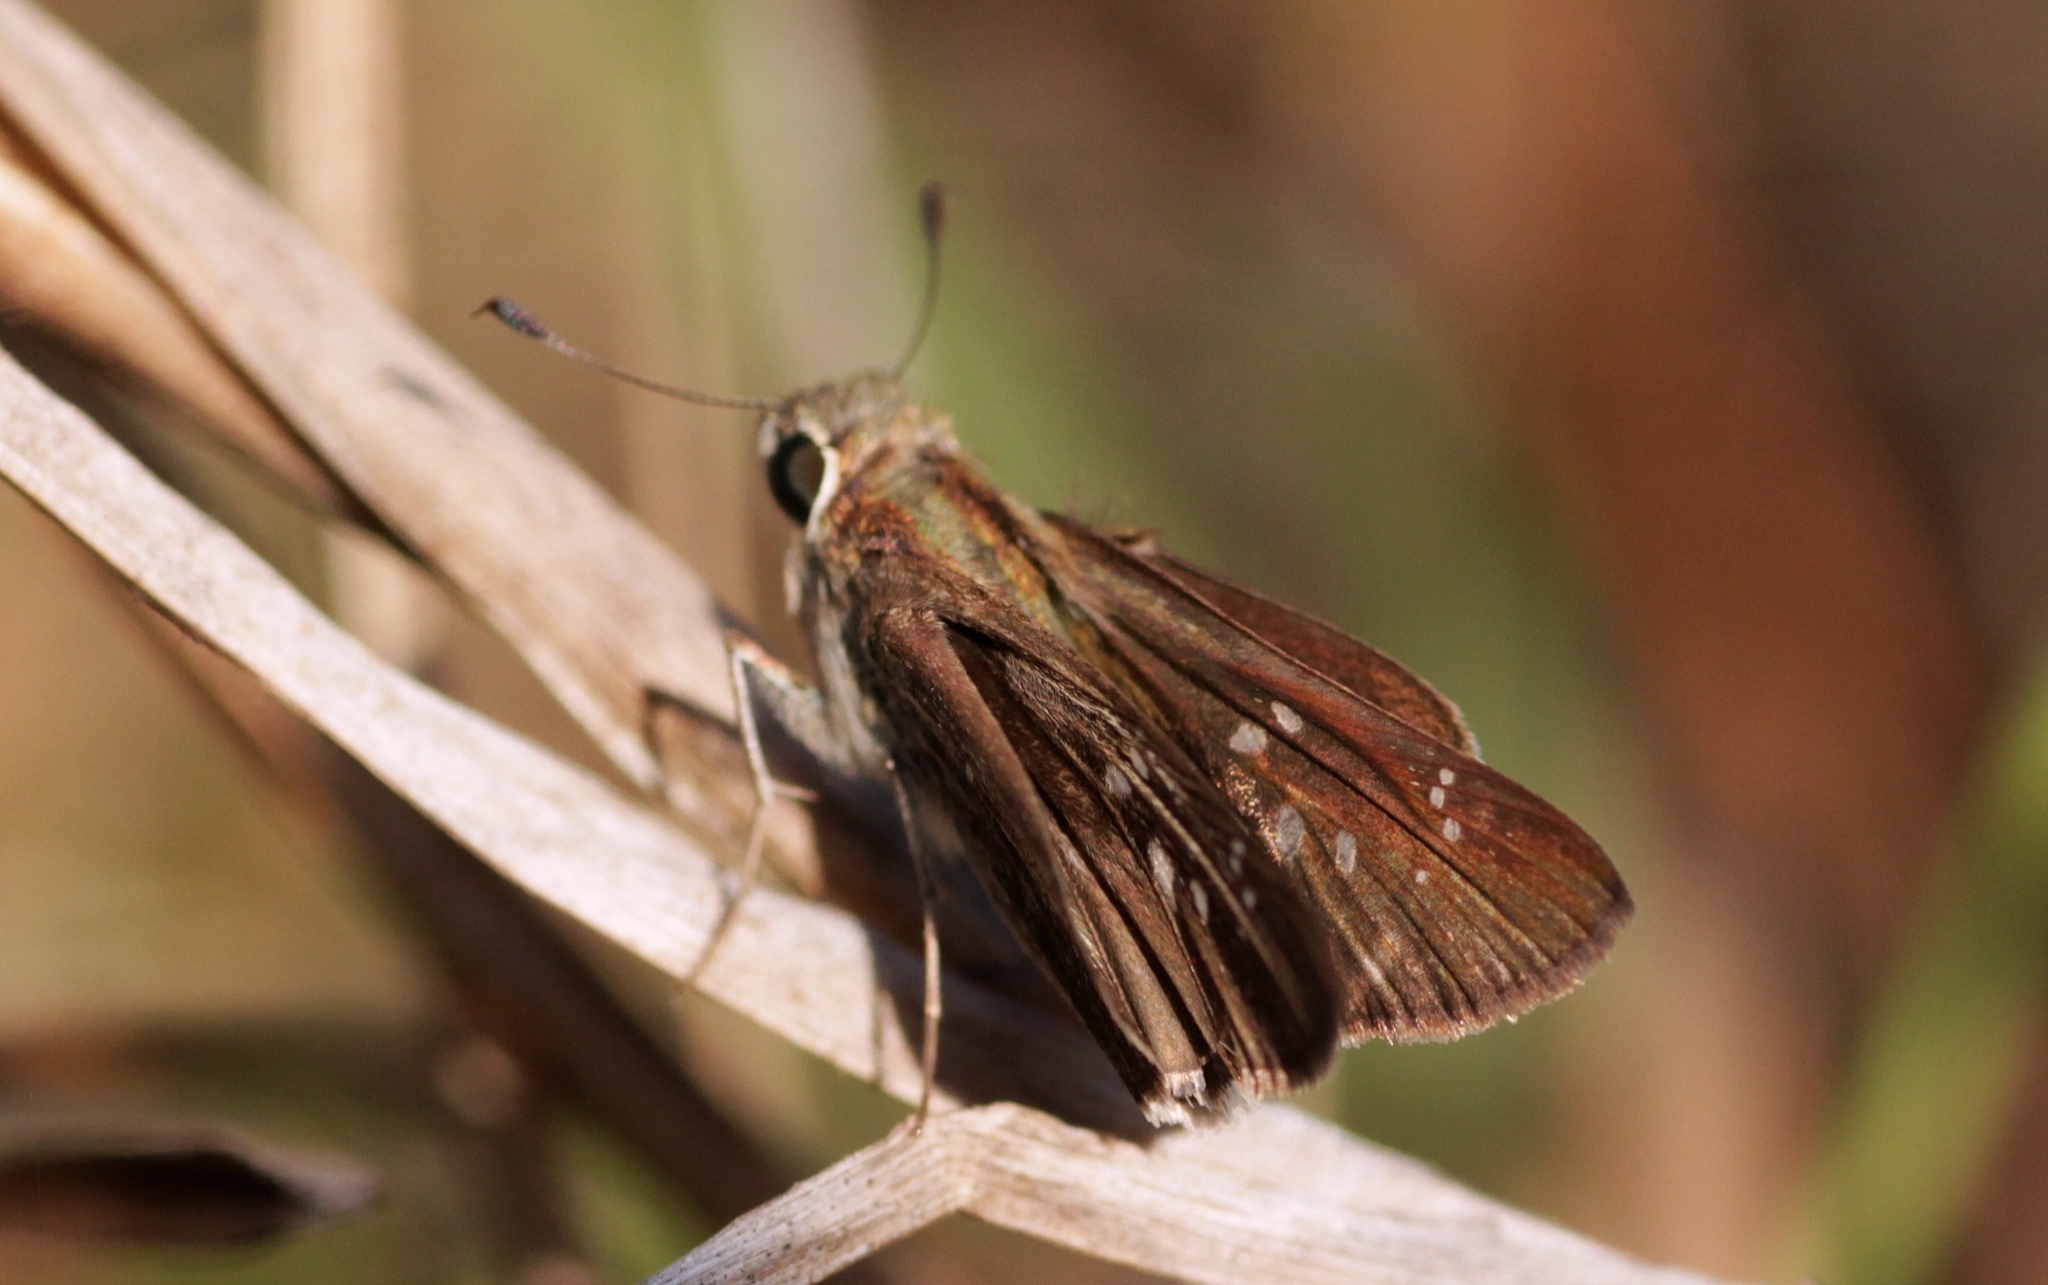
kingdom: Animalia
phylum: Arthropoda
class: Insecta
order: Lepidoptera
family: Hesperiidae
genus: Pelopidas
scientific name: Pelopidas mathias
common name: Black-branded swift
